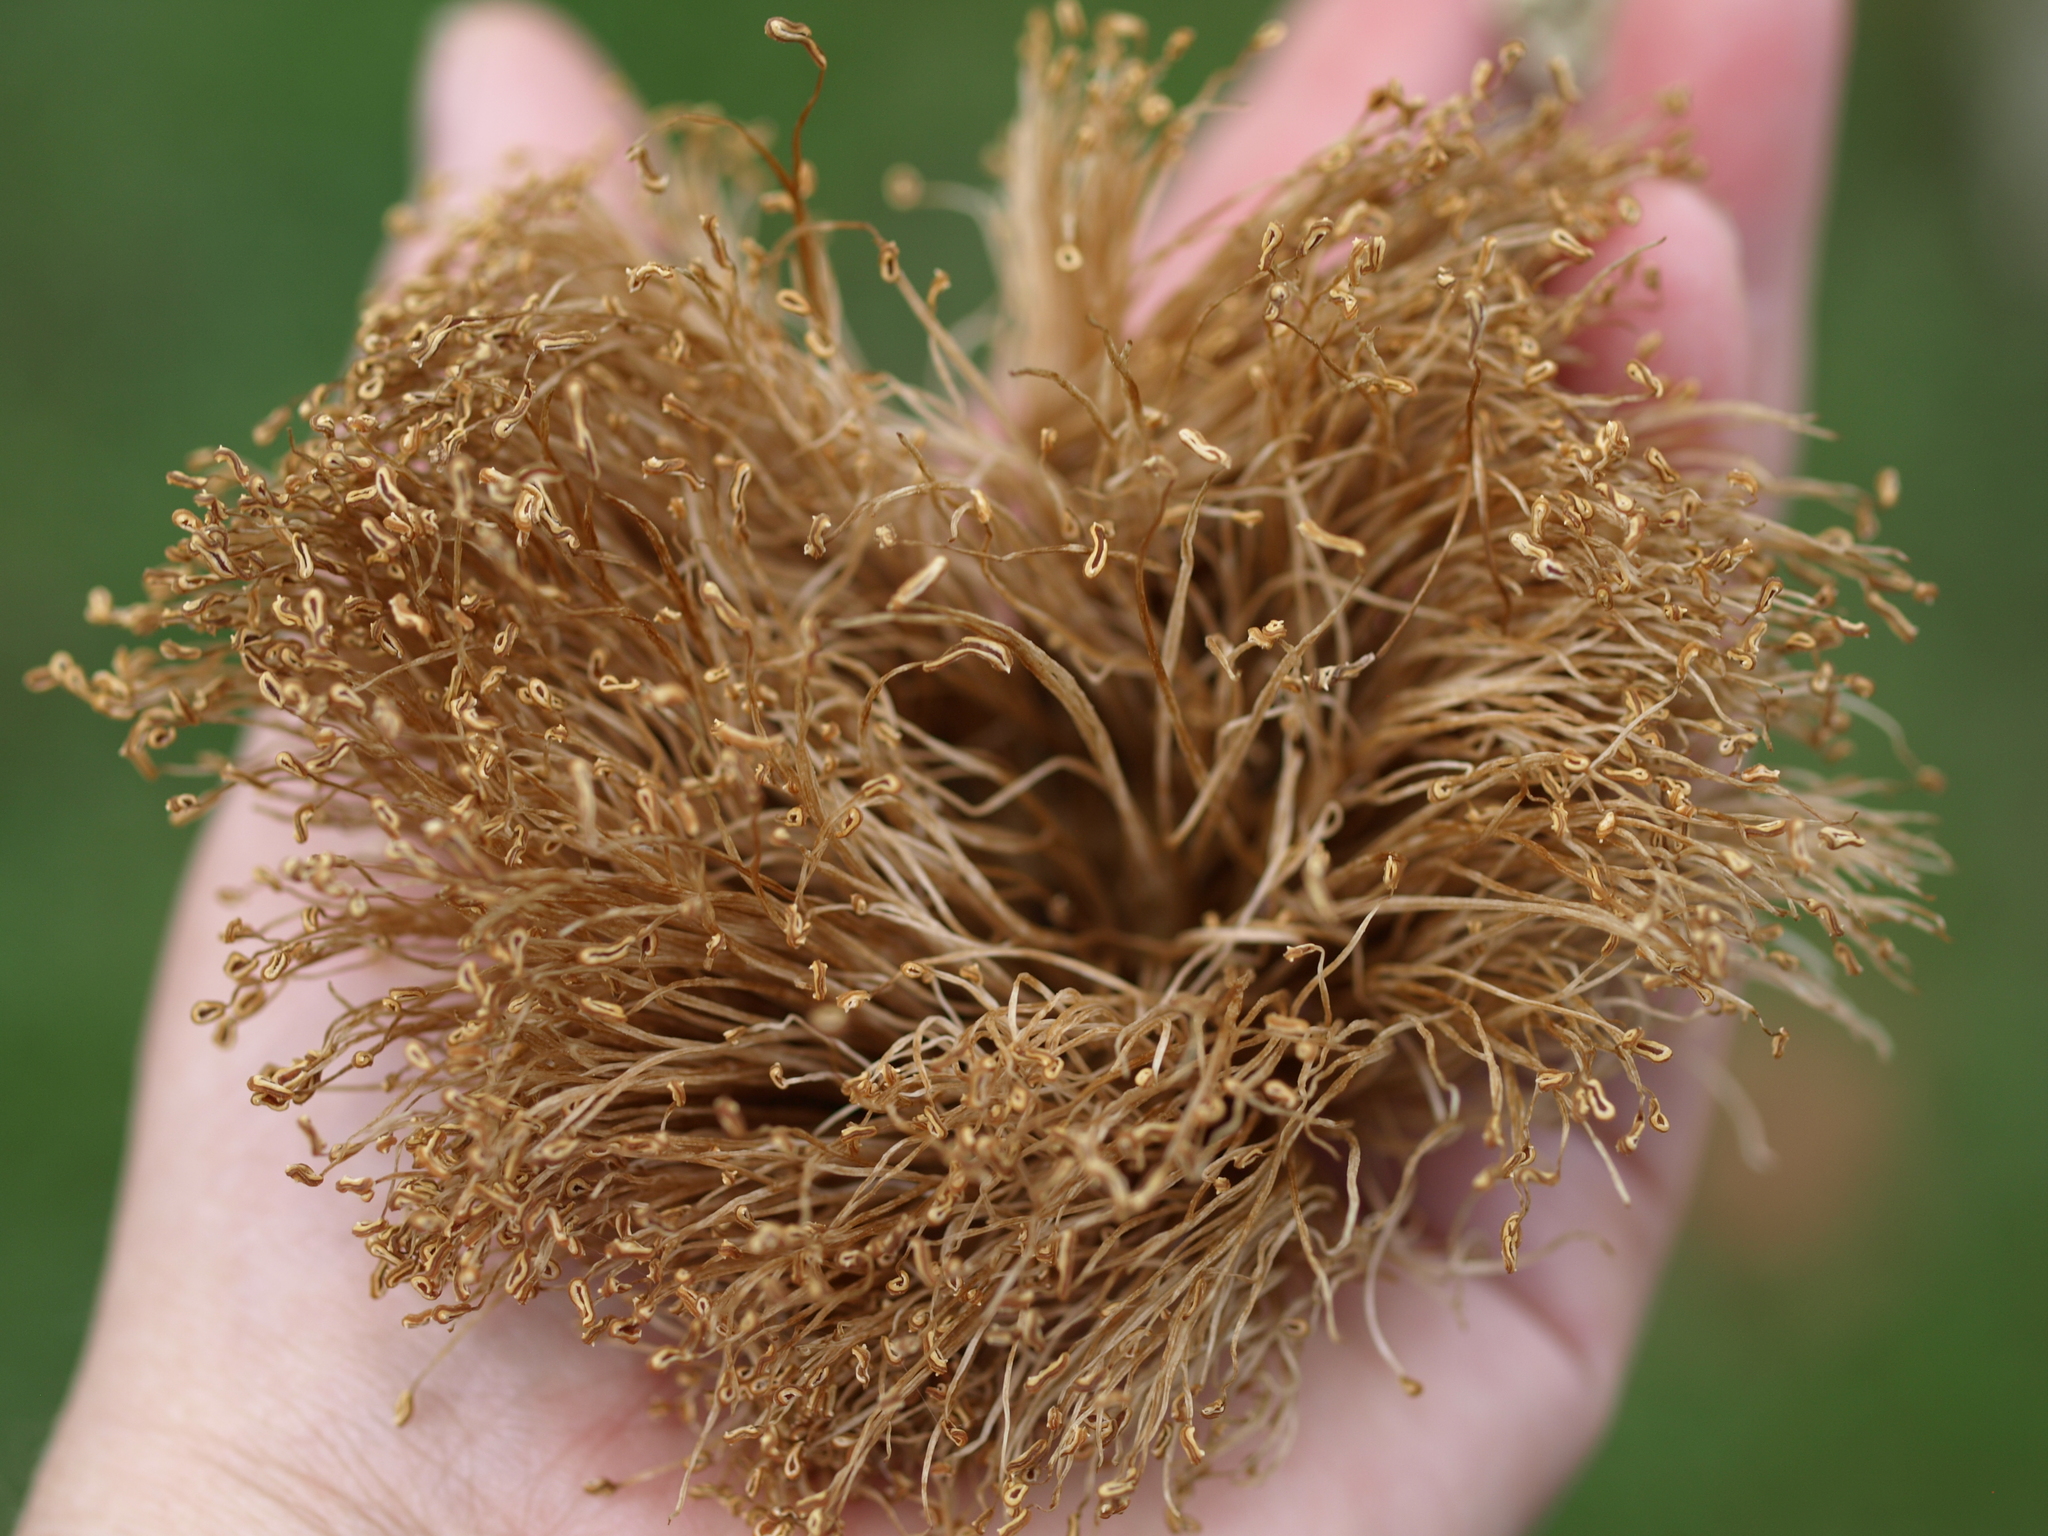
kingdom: Plantae
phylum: Tracheophyta
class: Magnoliopsida
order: Malvales
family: Malvaceae
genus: Pseudobombax
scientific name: Pseudobombax septenatum
